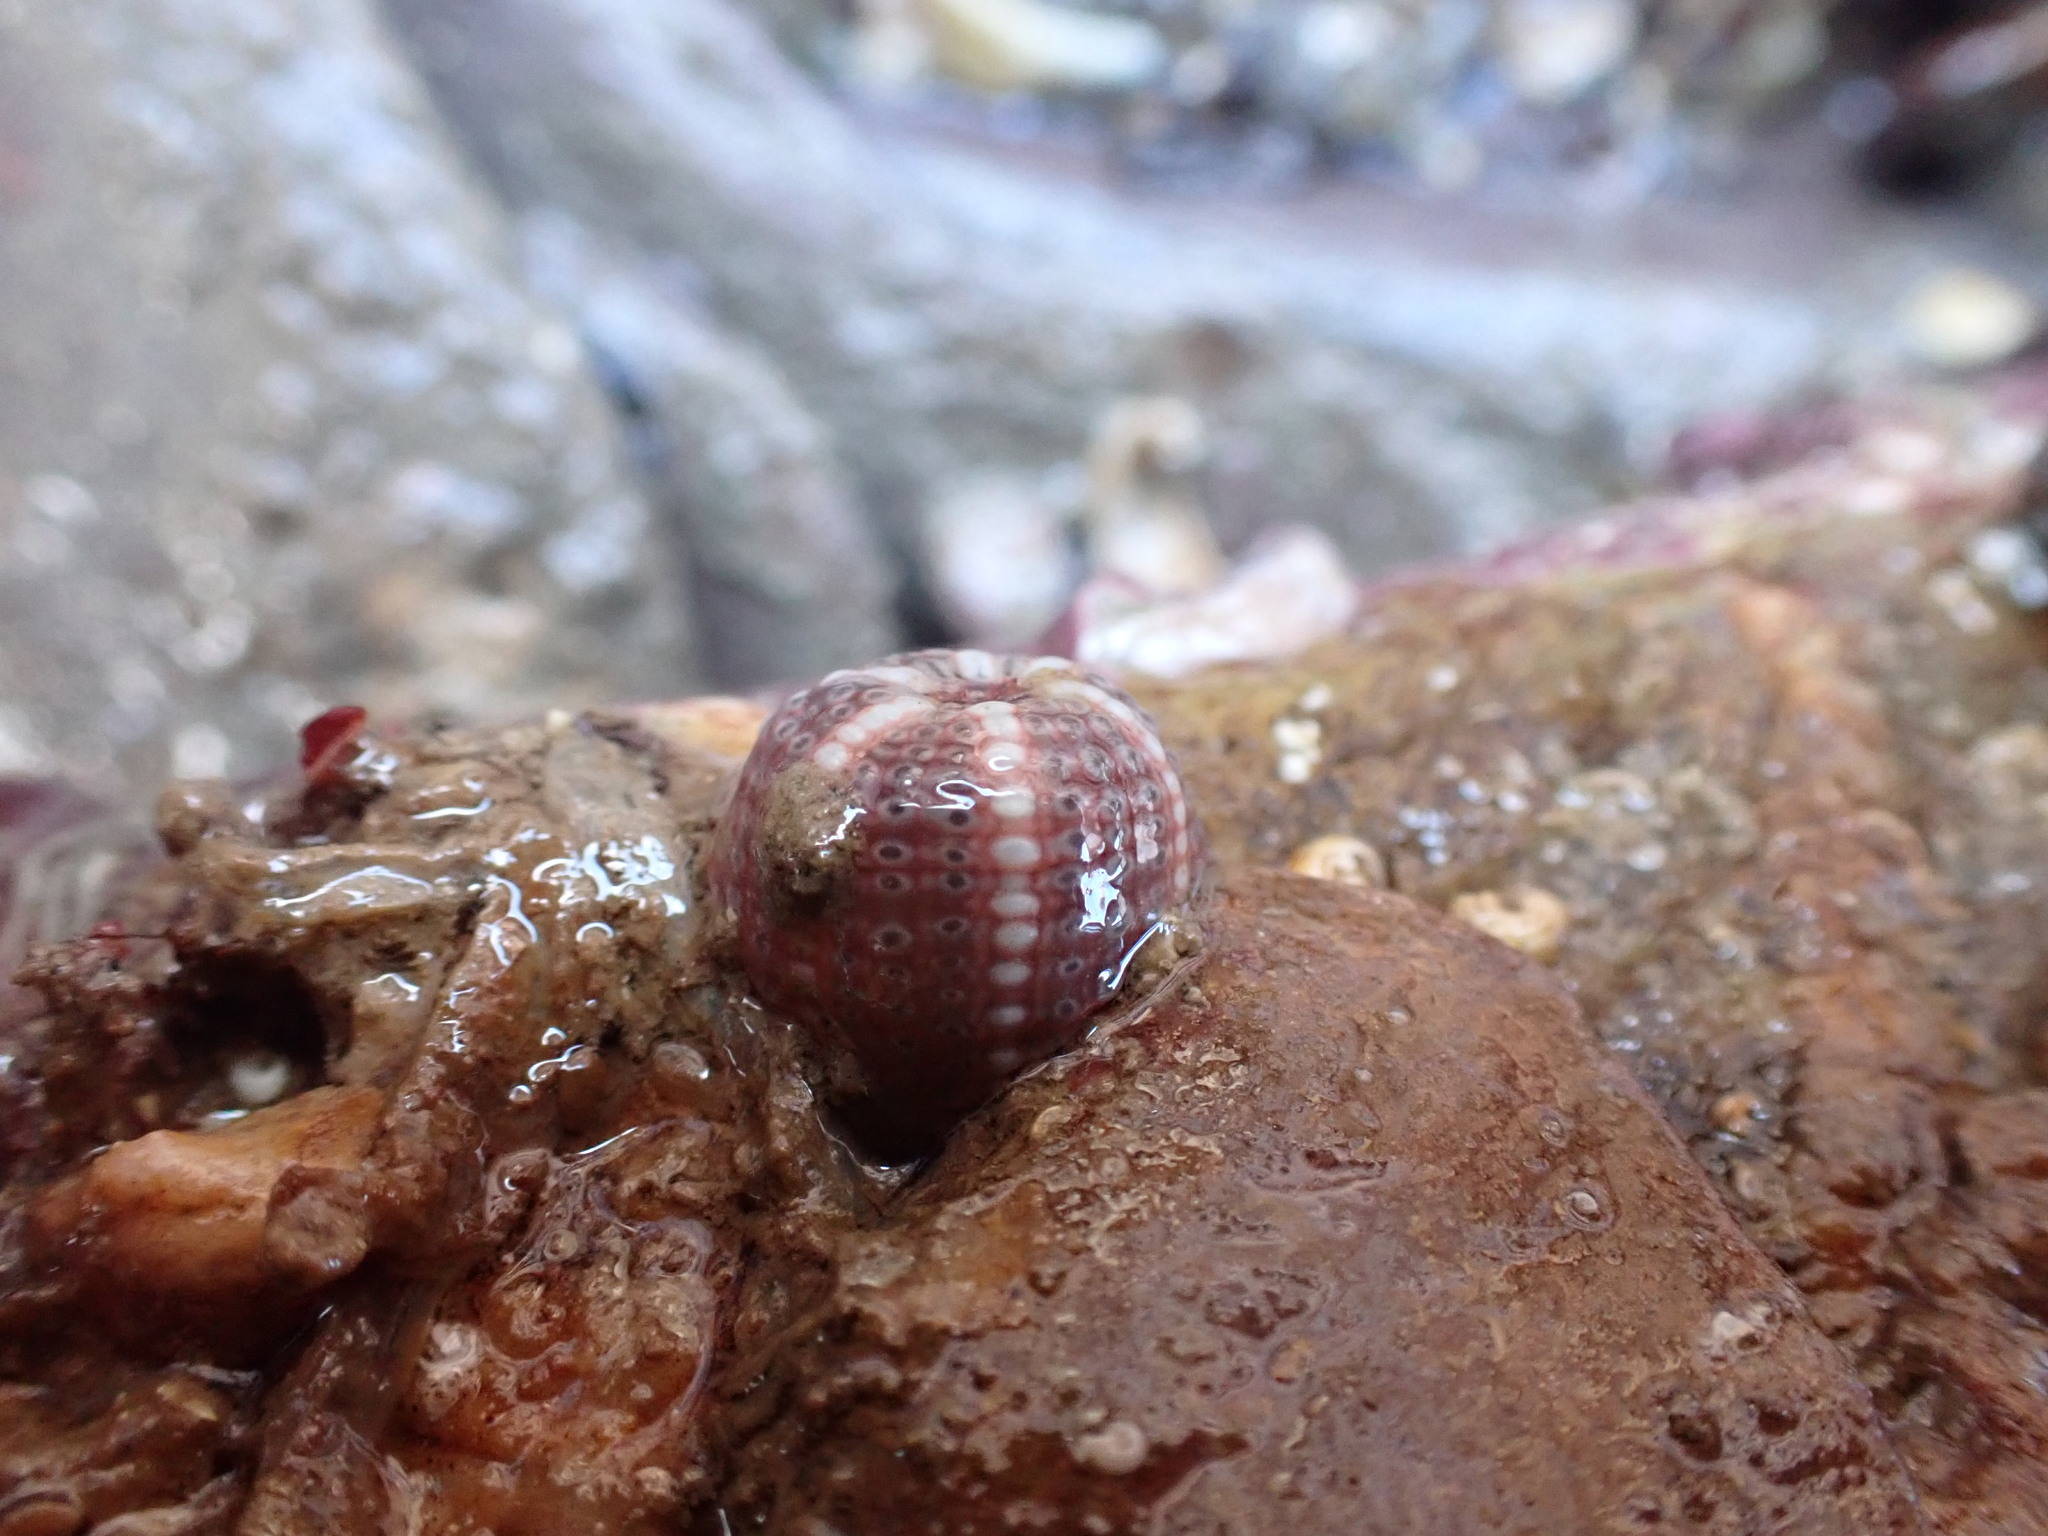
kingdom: Animalia
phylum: Cnidaria
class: Anthozoa
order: Actiniaria
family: Actiniidae
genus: Bunodactis
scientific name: Bunodactis verrucosa
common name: Gem anemone
